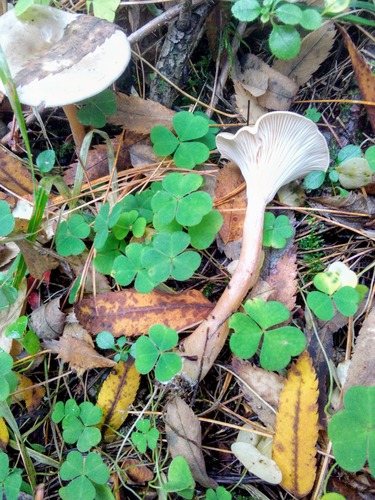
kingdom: Fungi
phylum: Basidiomycota
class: Agaricomycetes
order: Agaricales
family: Tricholomataceae
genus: Clitocybe
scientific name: Clitocybe fragrans
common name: Fragrant funnel
